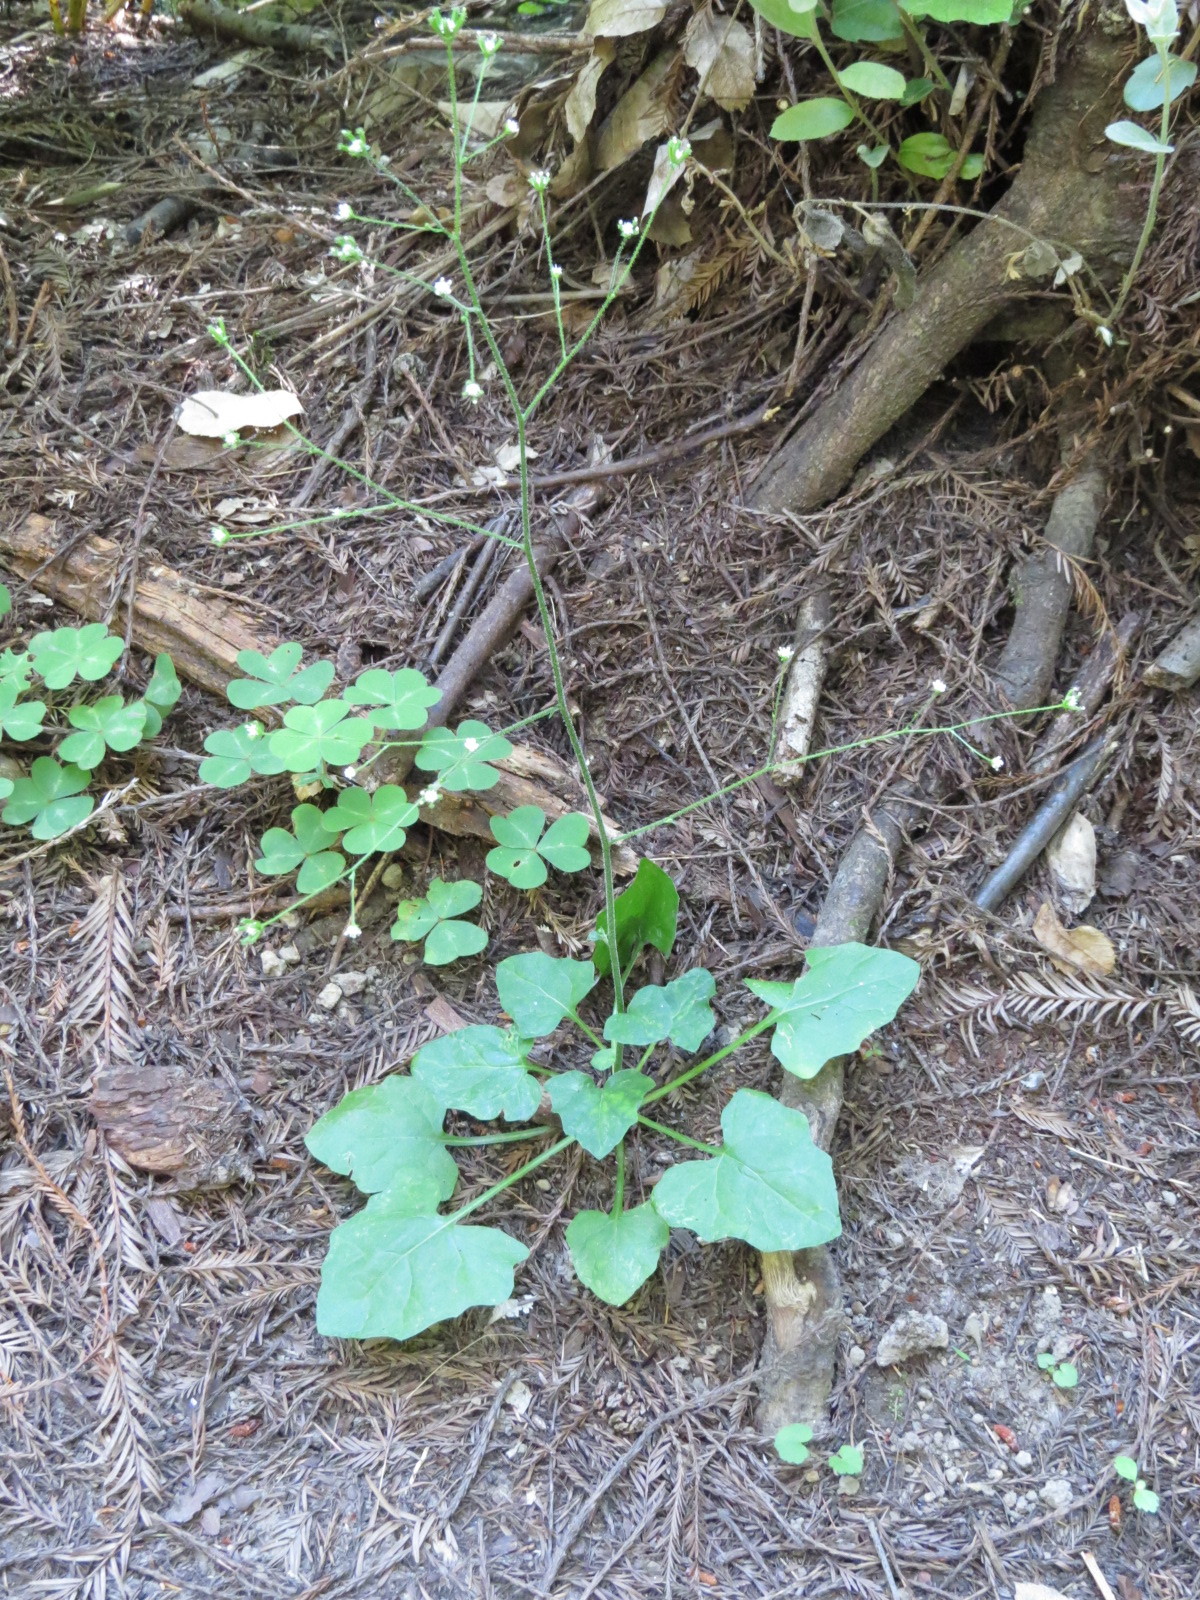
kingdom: Plantae
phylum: Tracheophyta
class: Magnoliopsida
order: Asterales
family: Asteraceae
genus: Adenocaulon
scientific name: Adenocaulon bicolor
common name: Trailplant
